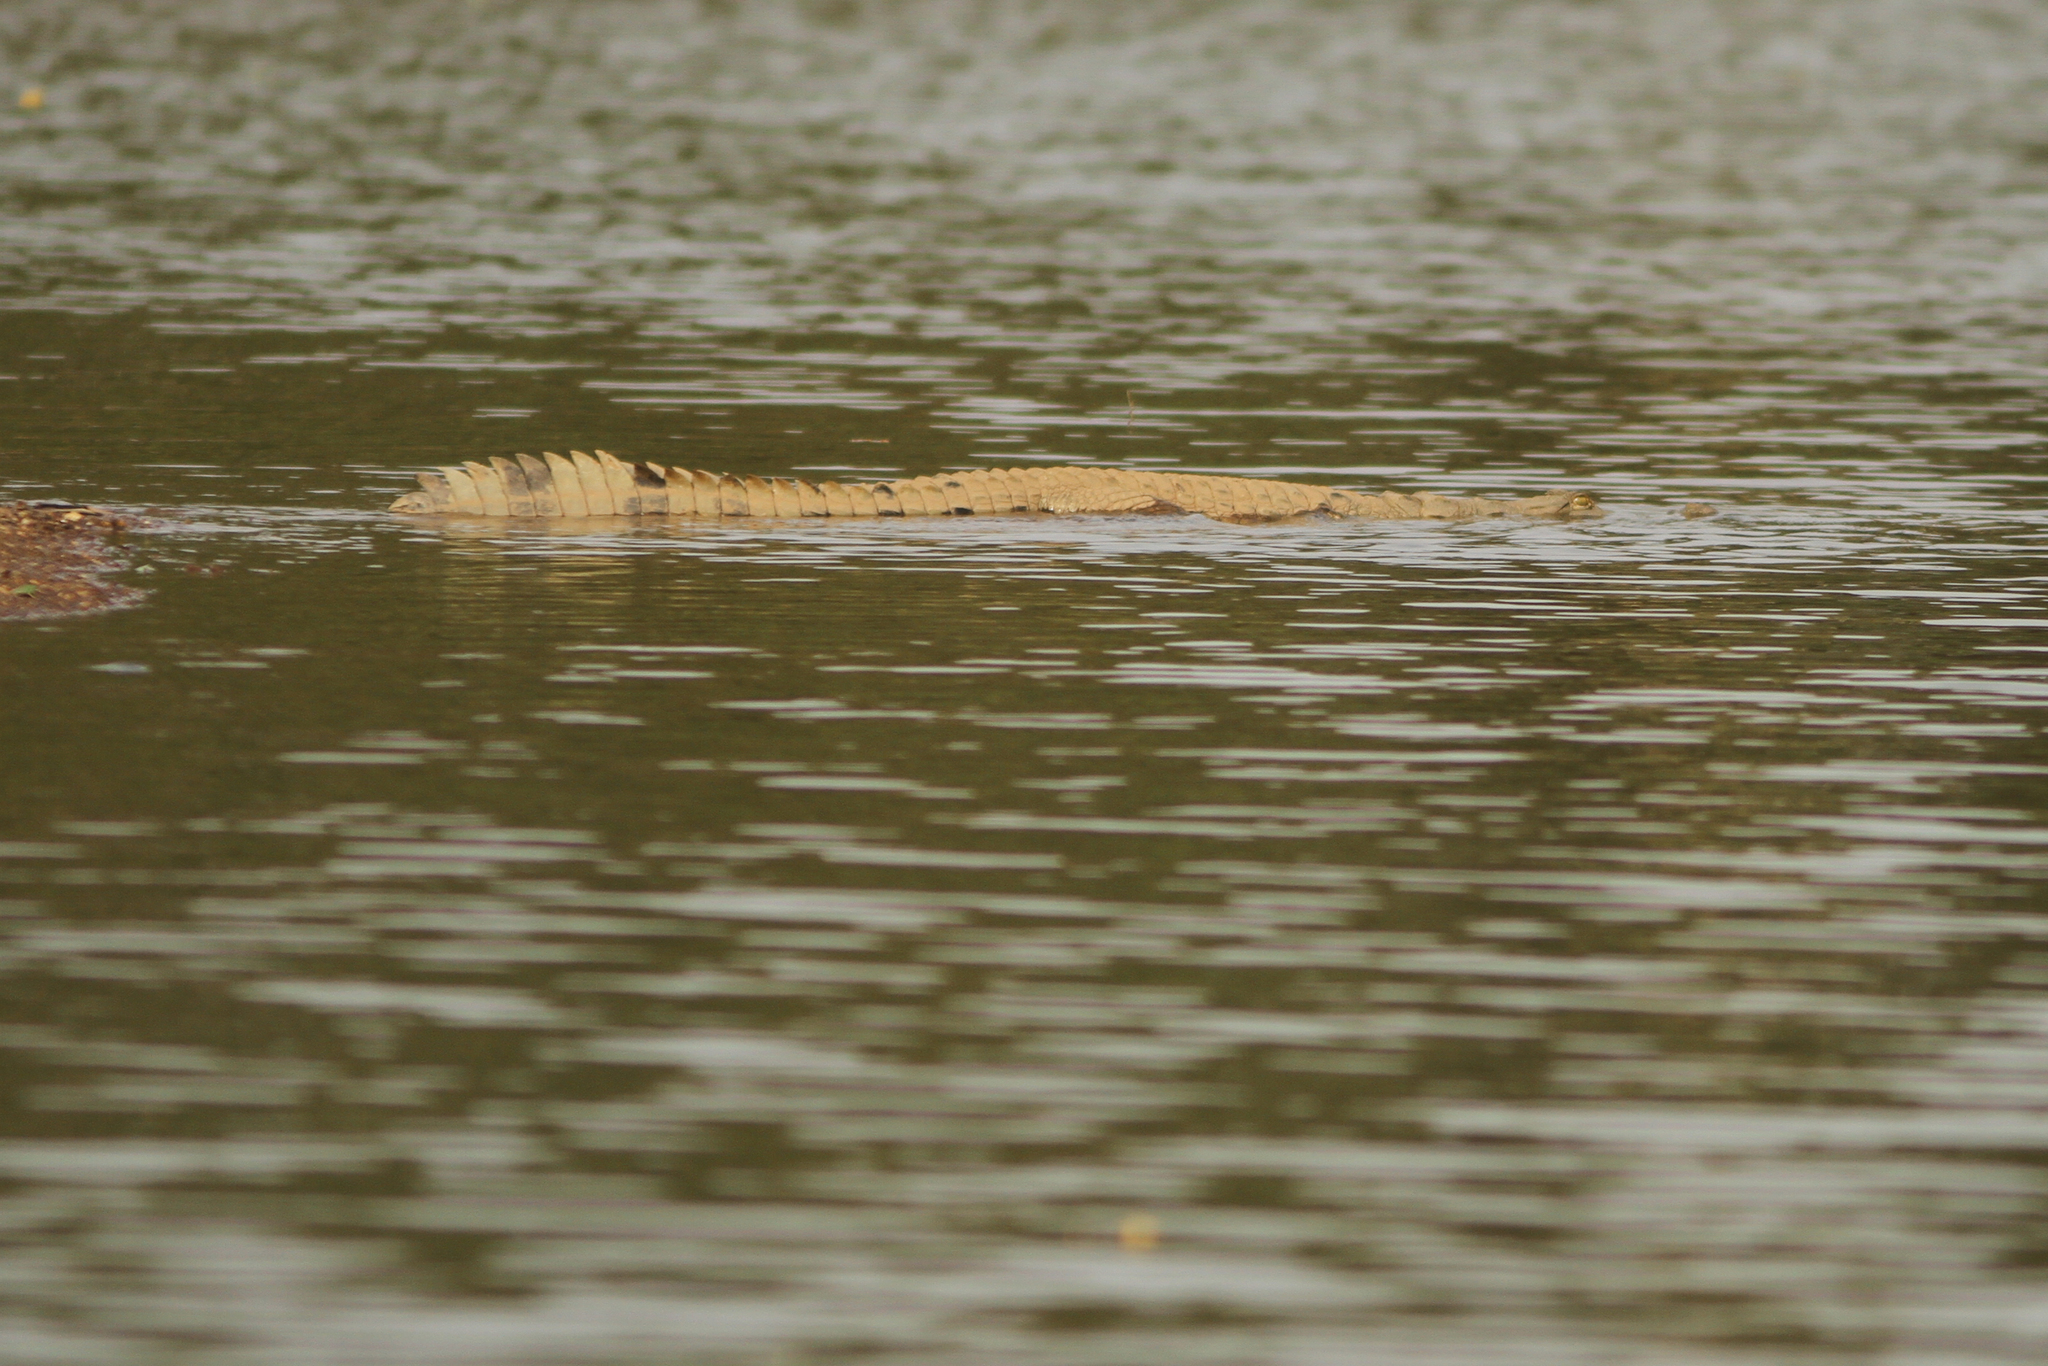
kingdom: Animalia
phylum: Chordata
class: Crocodylia
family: Crocodylidae
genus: Crocodylus
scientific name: Crocodylus suchus
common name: West african crocodile
